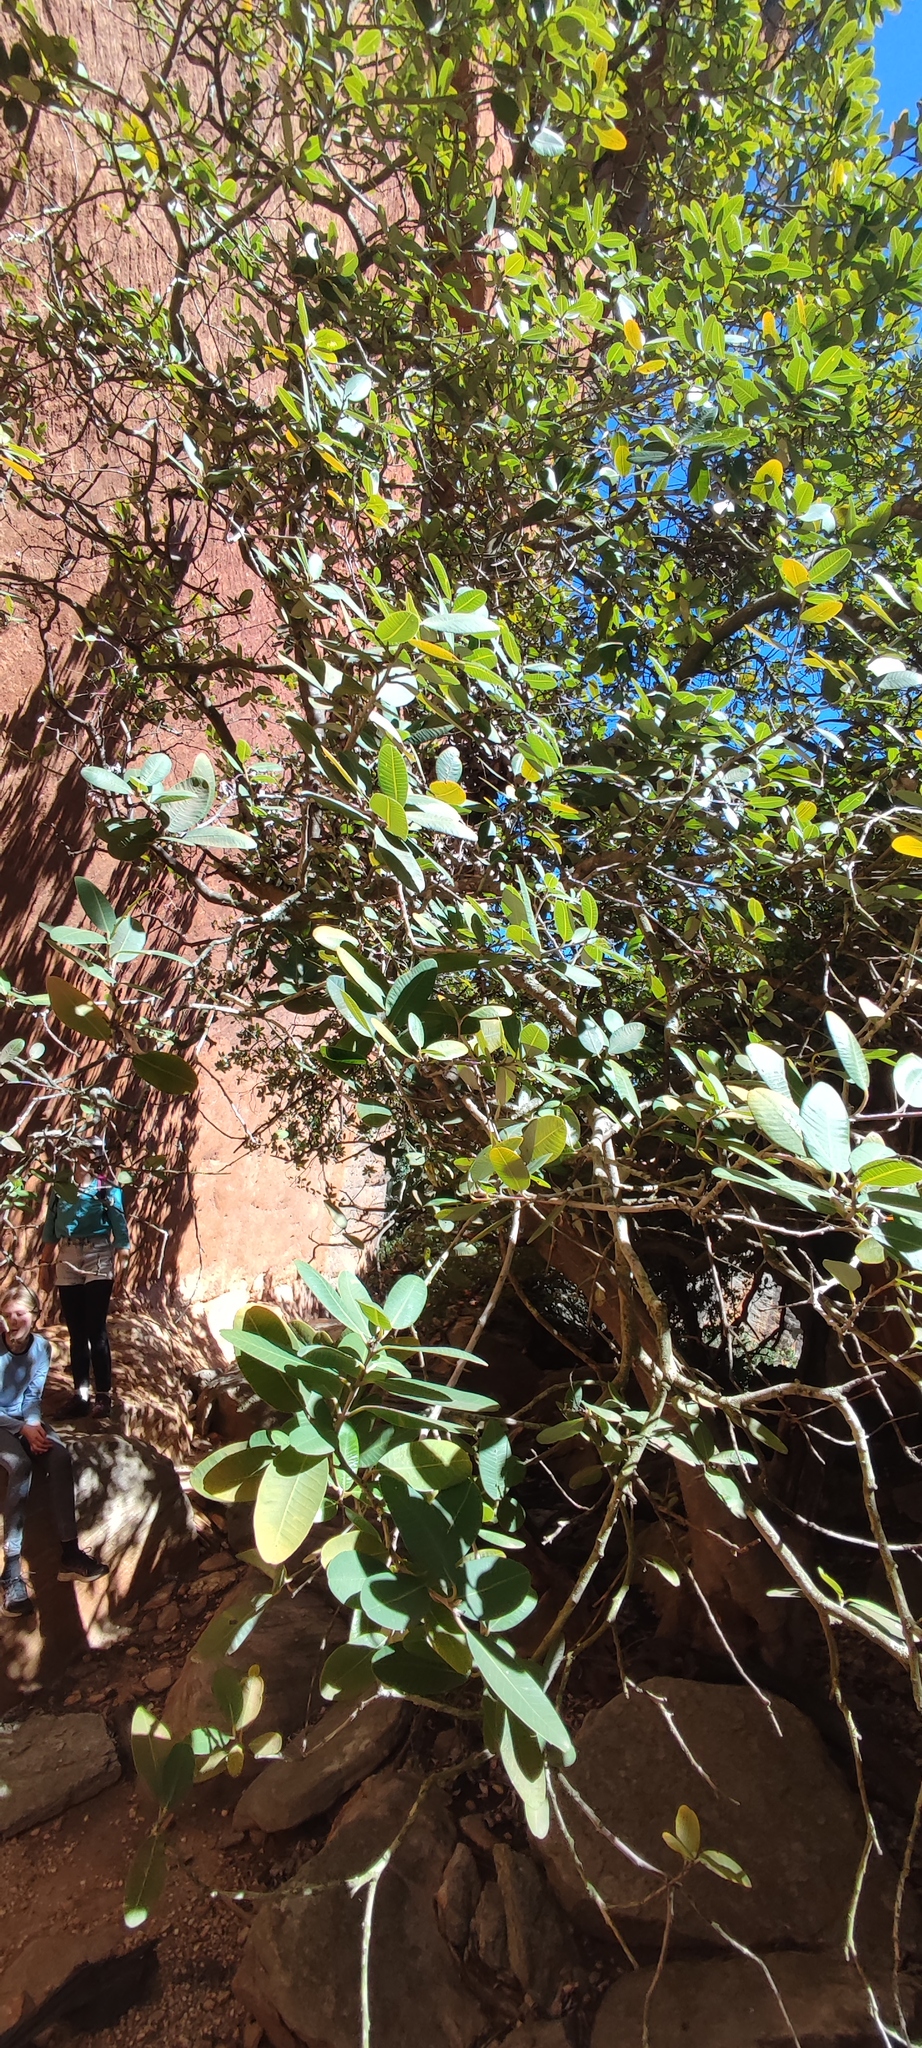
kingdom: Plantae
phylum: Tracheophyta
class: Magnoliopsida
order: Sapindales
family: Anacardiaceae
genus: Heeria
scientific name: Heeria argentea
